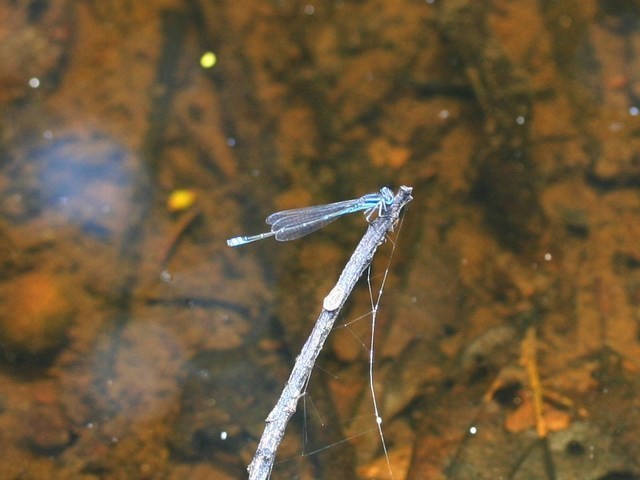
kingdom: Animalia
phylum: Arthropoda
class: Insecta
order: Odonata
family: Coenagrionidae
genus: Azuragrion
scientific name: Azuragrion kauderni
